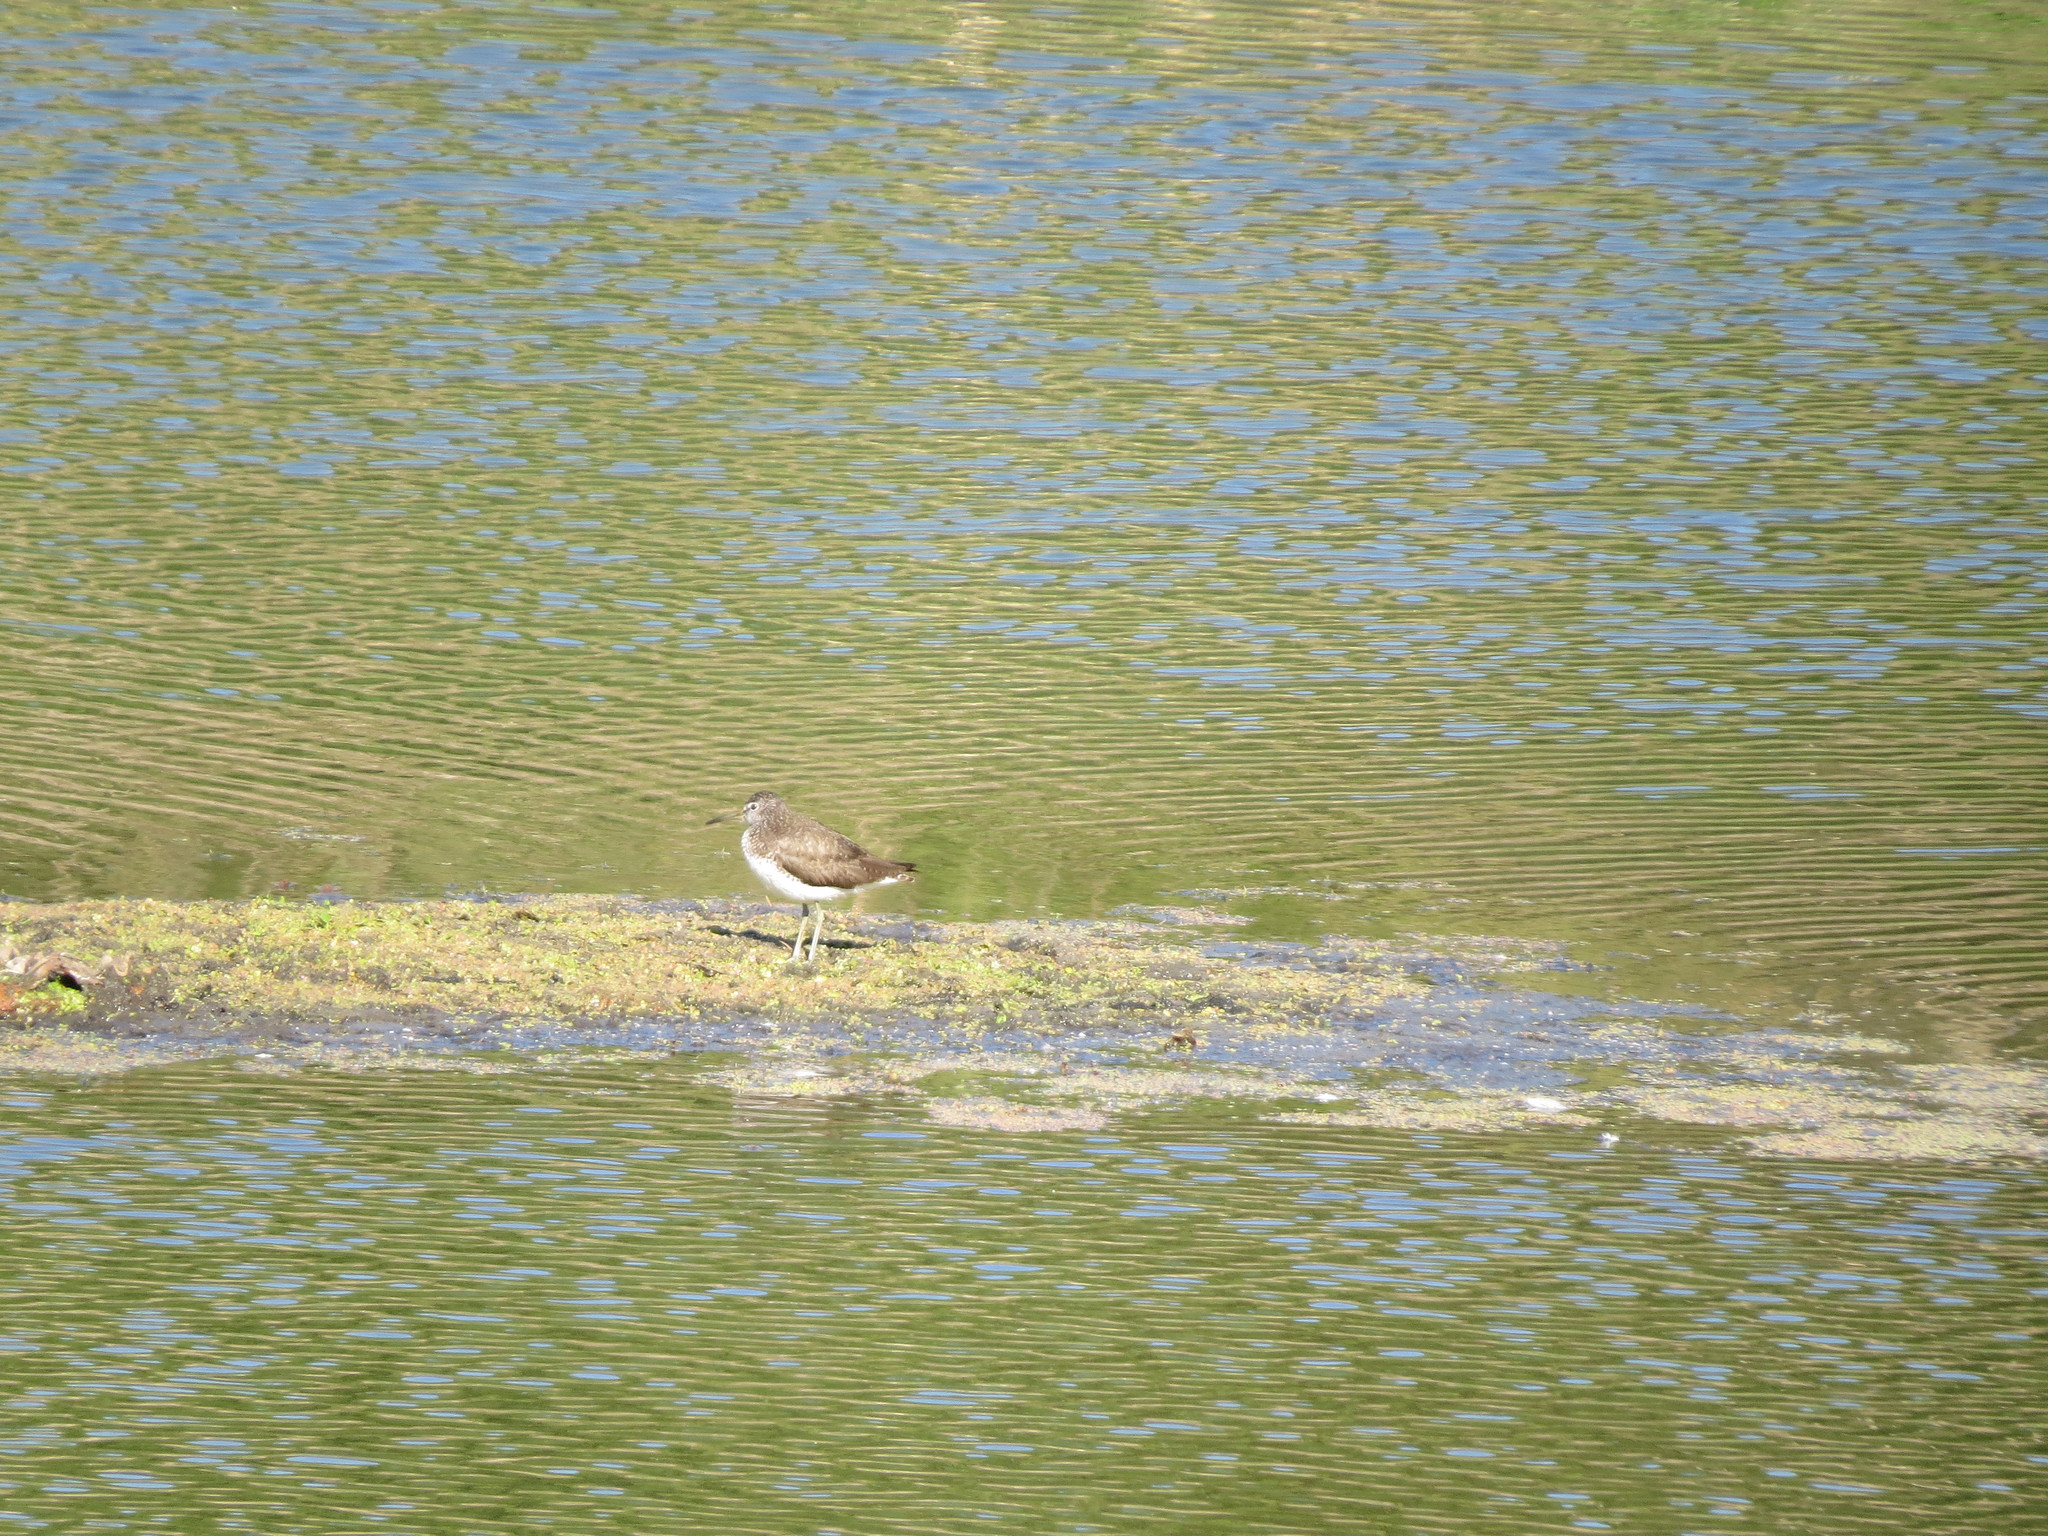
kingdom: Animalia
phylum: Chordata
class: Aves
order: Charadriiformes
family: Scolopacidae
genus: Tringa
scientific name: Tringa ochropus
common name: Green sandpiper
